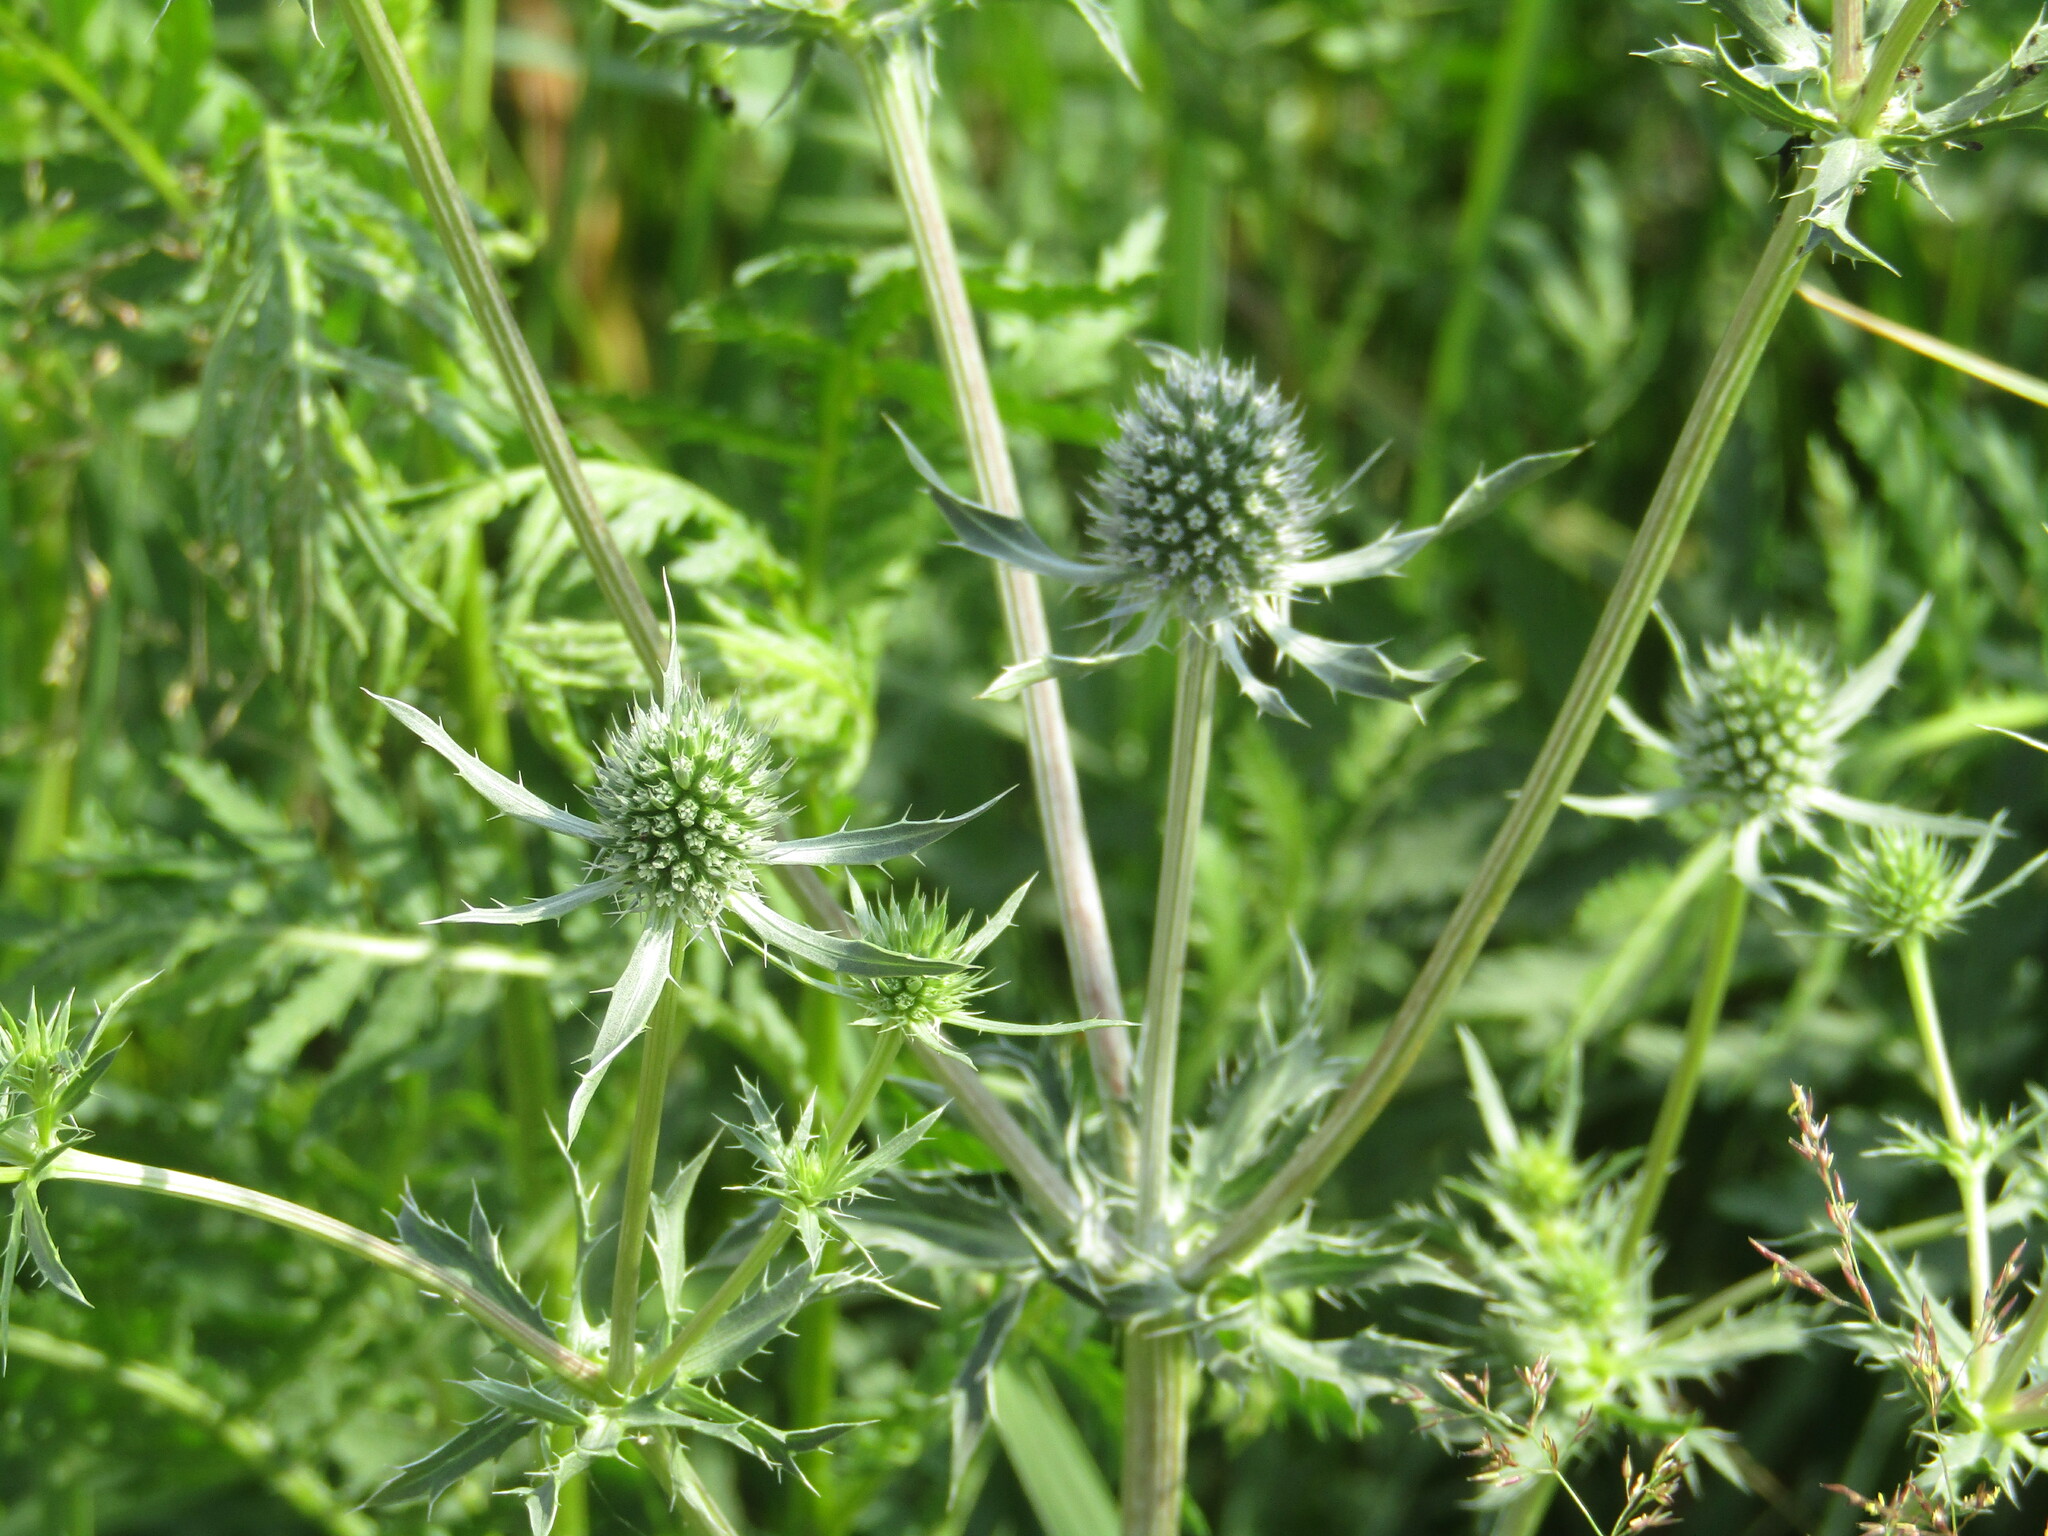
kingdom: Plantae
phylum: Tracheophyta
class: Magnoliopsida
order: Apiales
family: Apiaceae
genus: Eryngium
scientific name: Eryngium planum
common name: Blue eryngo
